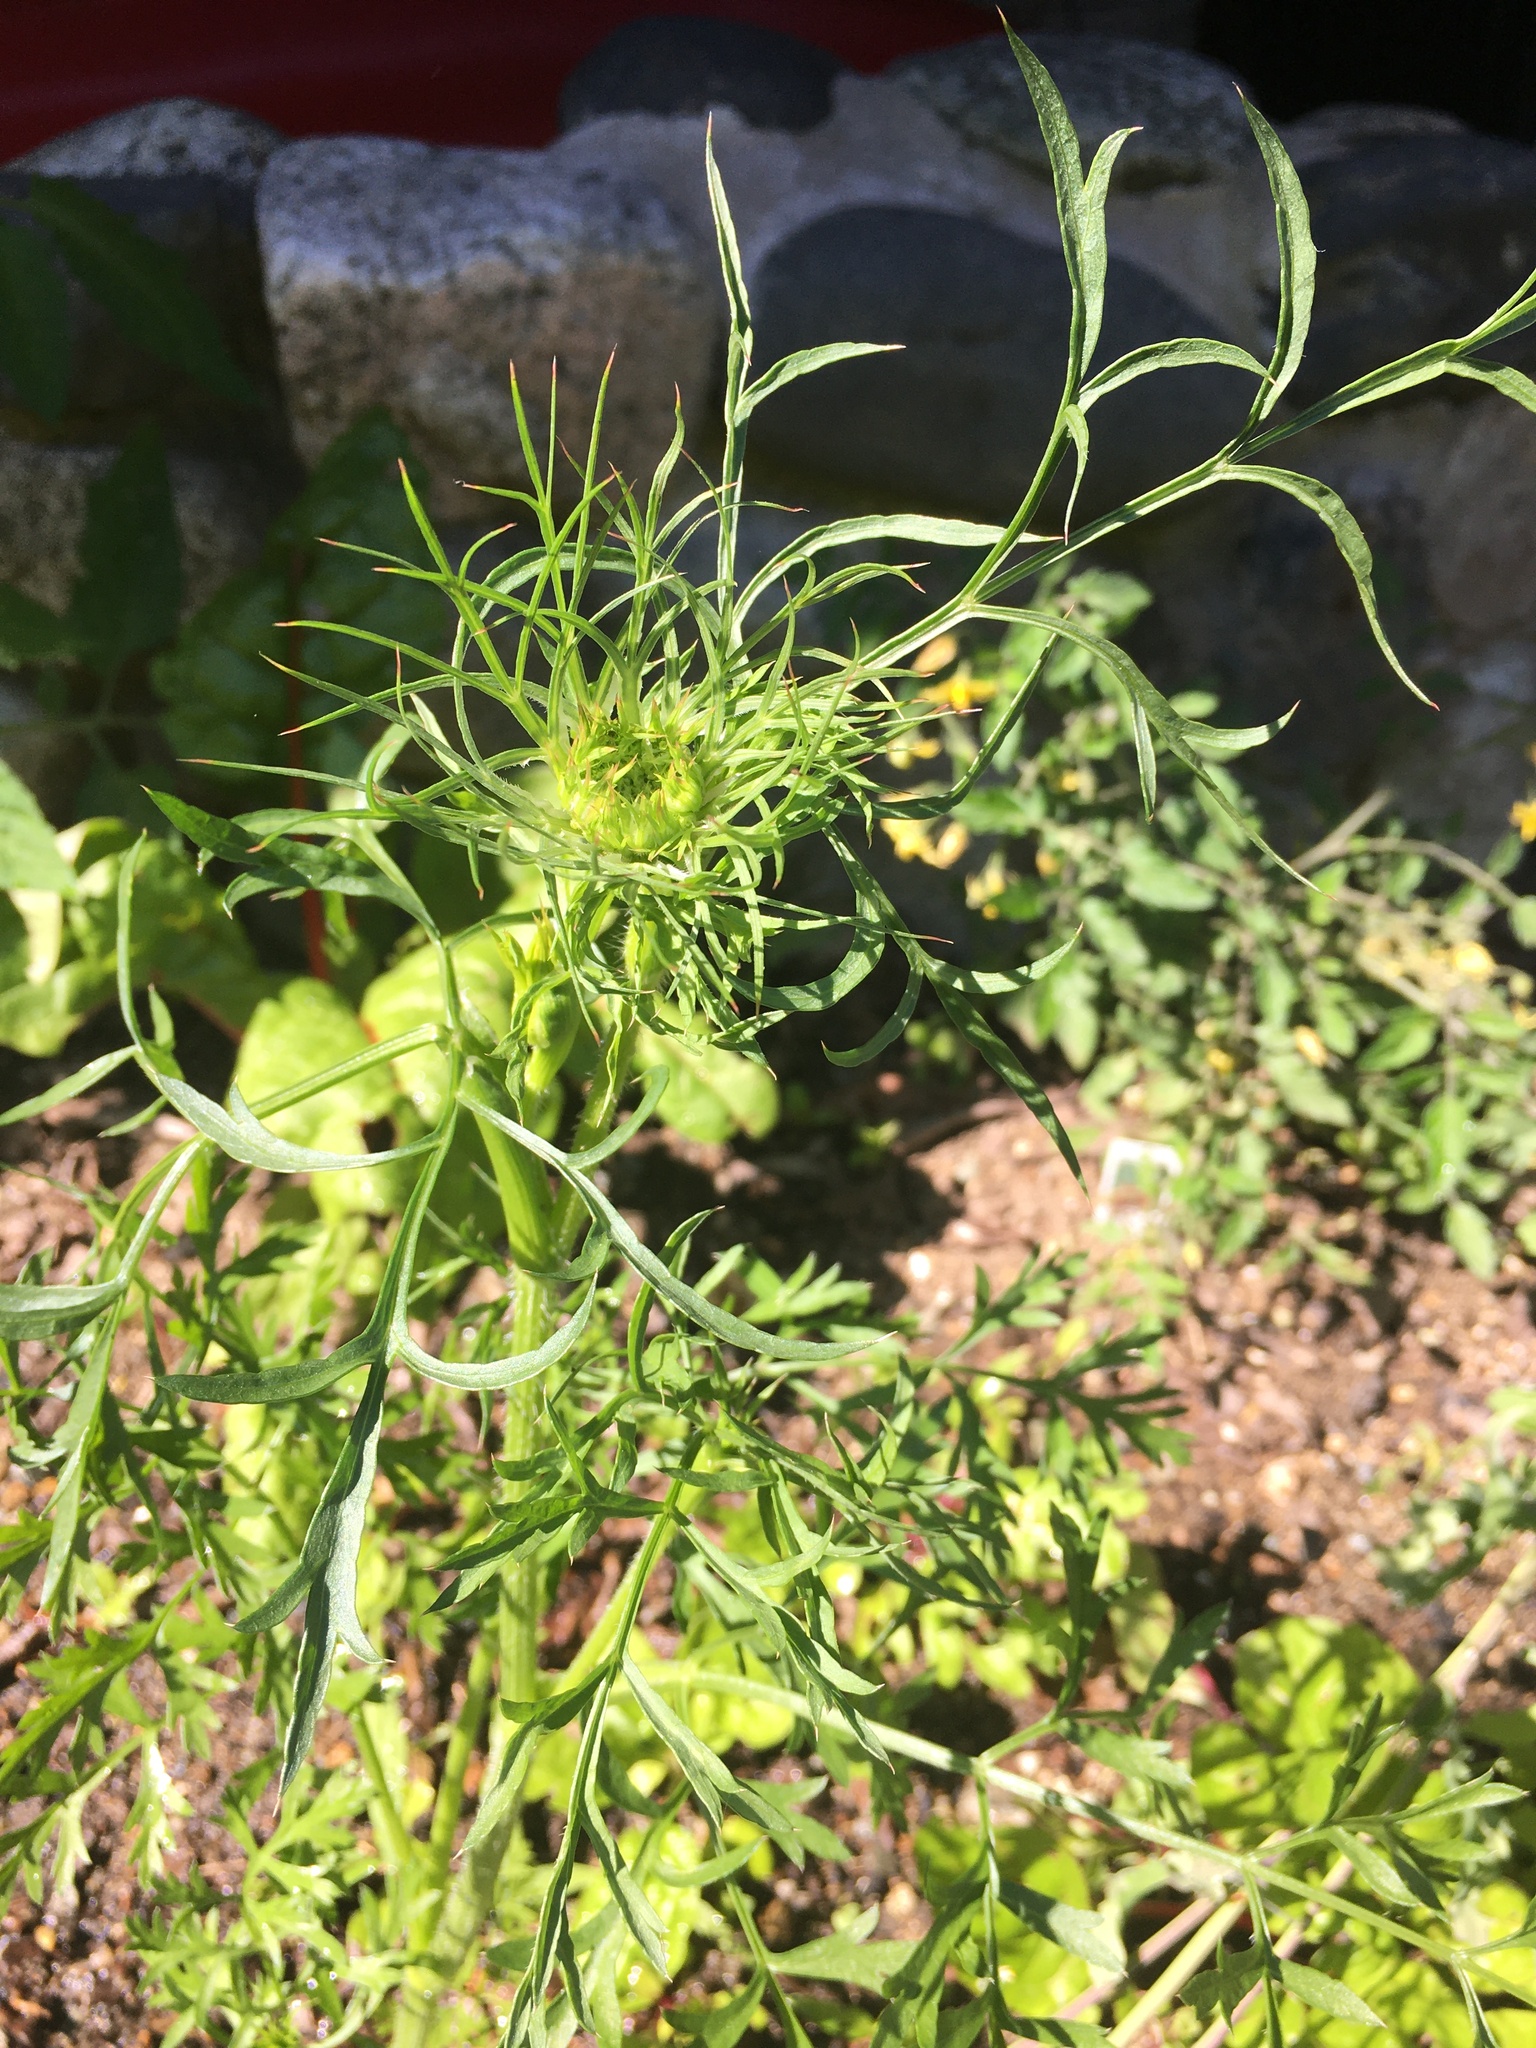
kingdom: Plantae
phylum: Tracheophyta
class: Magnoliopsida
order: Apiales
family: Apiaceae
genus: Daucus
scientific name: Daucus carota
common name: Wild carrot
